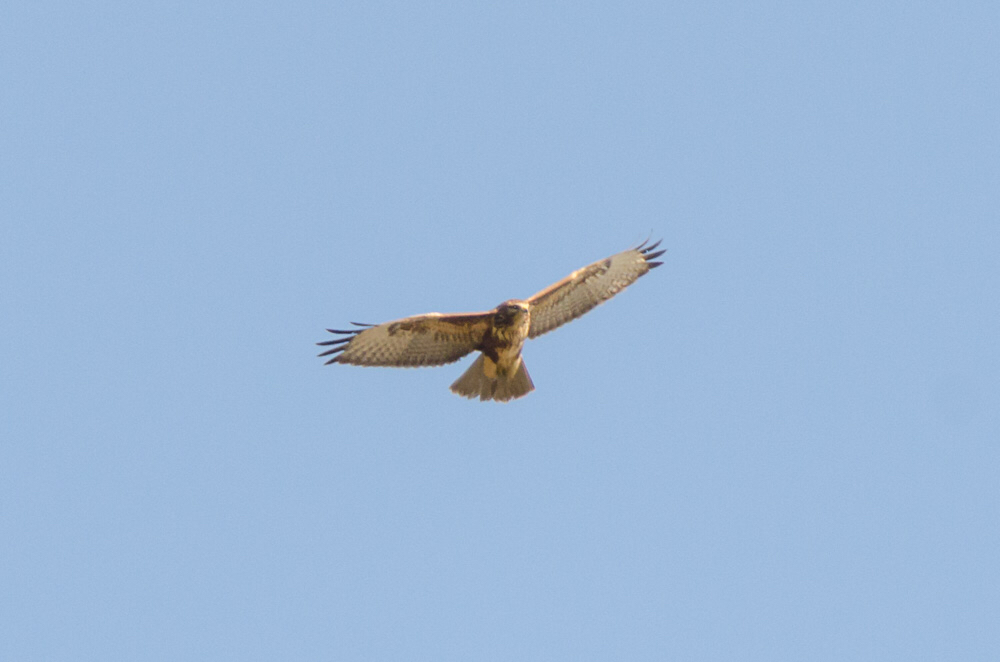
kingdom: Animalia
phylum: Chordata
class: Aves
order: Accipitriformes
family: Accipitridae
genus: Buteo
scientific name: Buteo buteo
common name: Common buzzard
